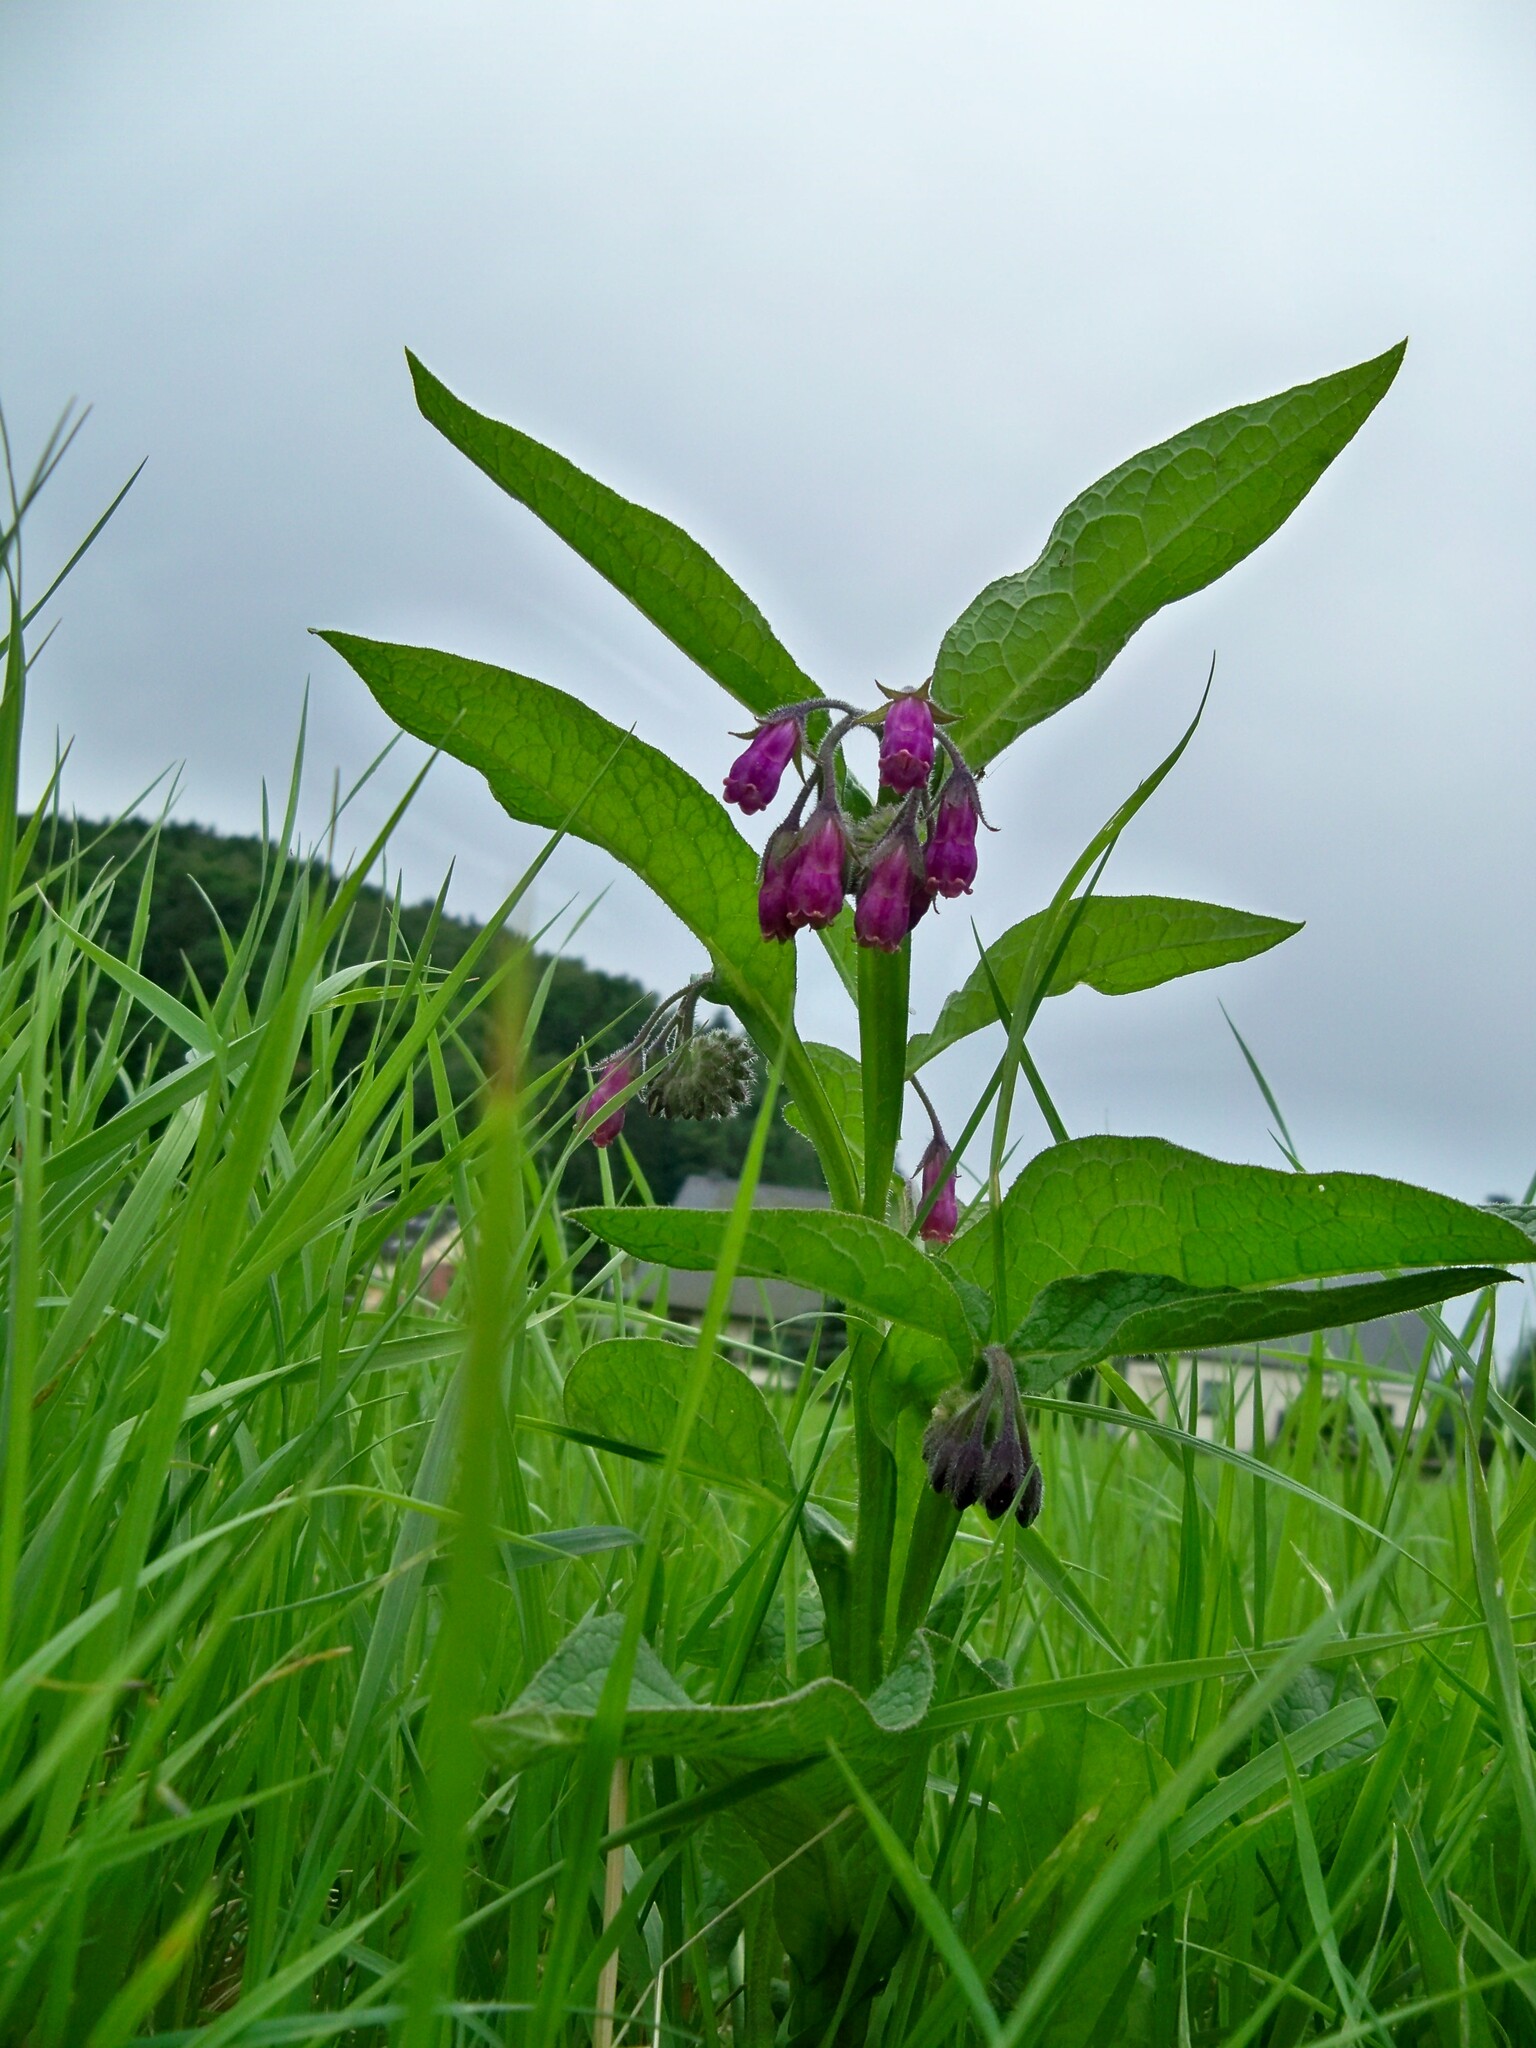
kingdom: Plantae
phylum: Tracheophyta
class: Magnoliopsida
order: Boraginales
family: Boraginaceae
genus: Symphytum
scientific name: Symphytum officinale
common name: Common comfrey
